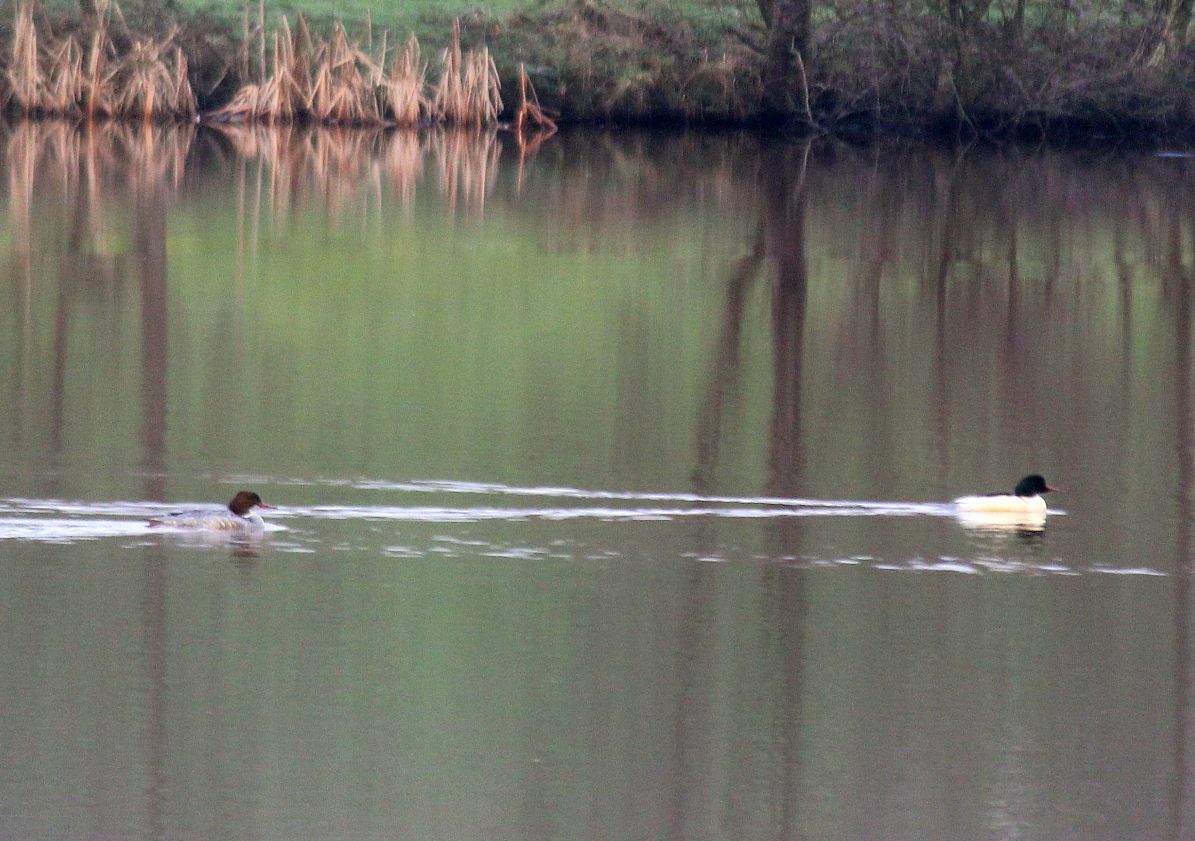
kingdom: Animalia
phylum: Chordata
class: Aves
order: Anseriformes
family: Anatidae
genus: Mergus
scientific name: Mergus merganser
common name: Common merganser
